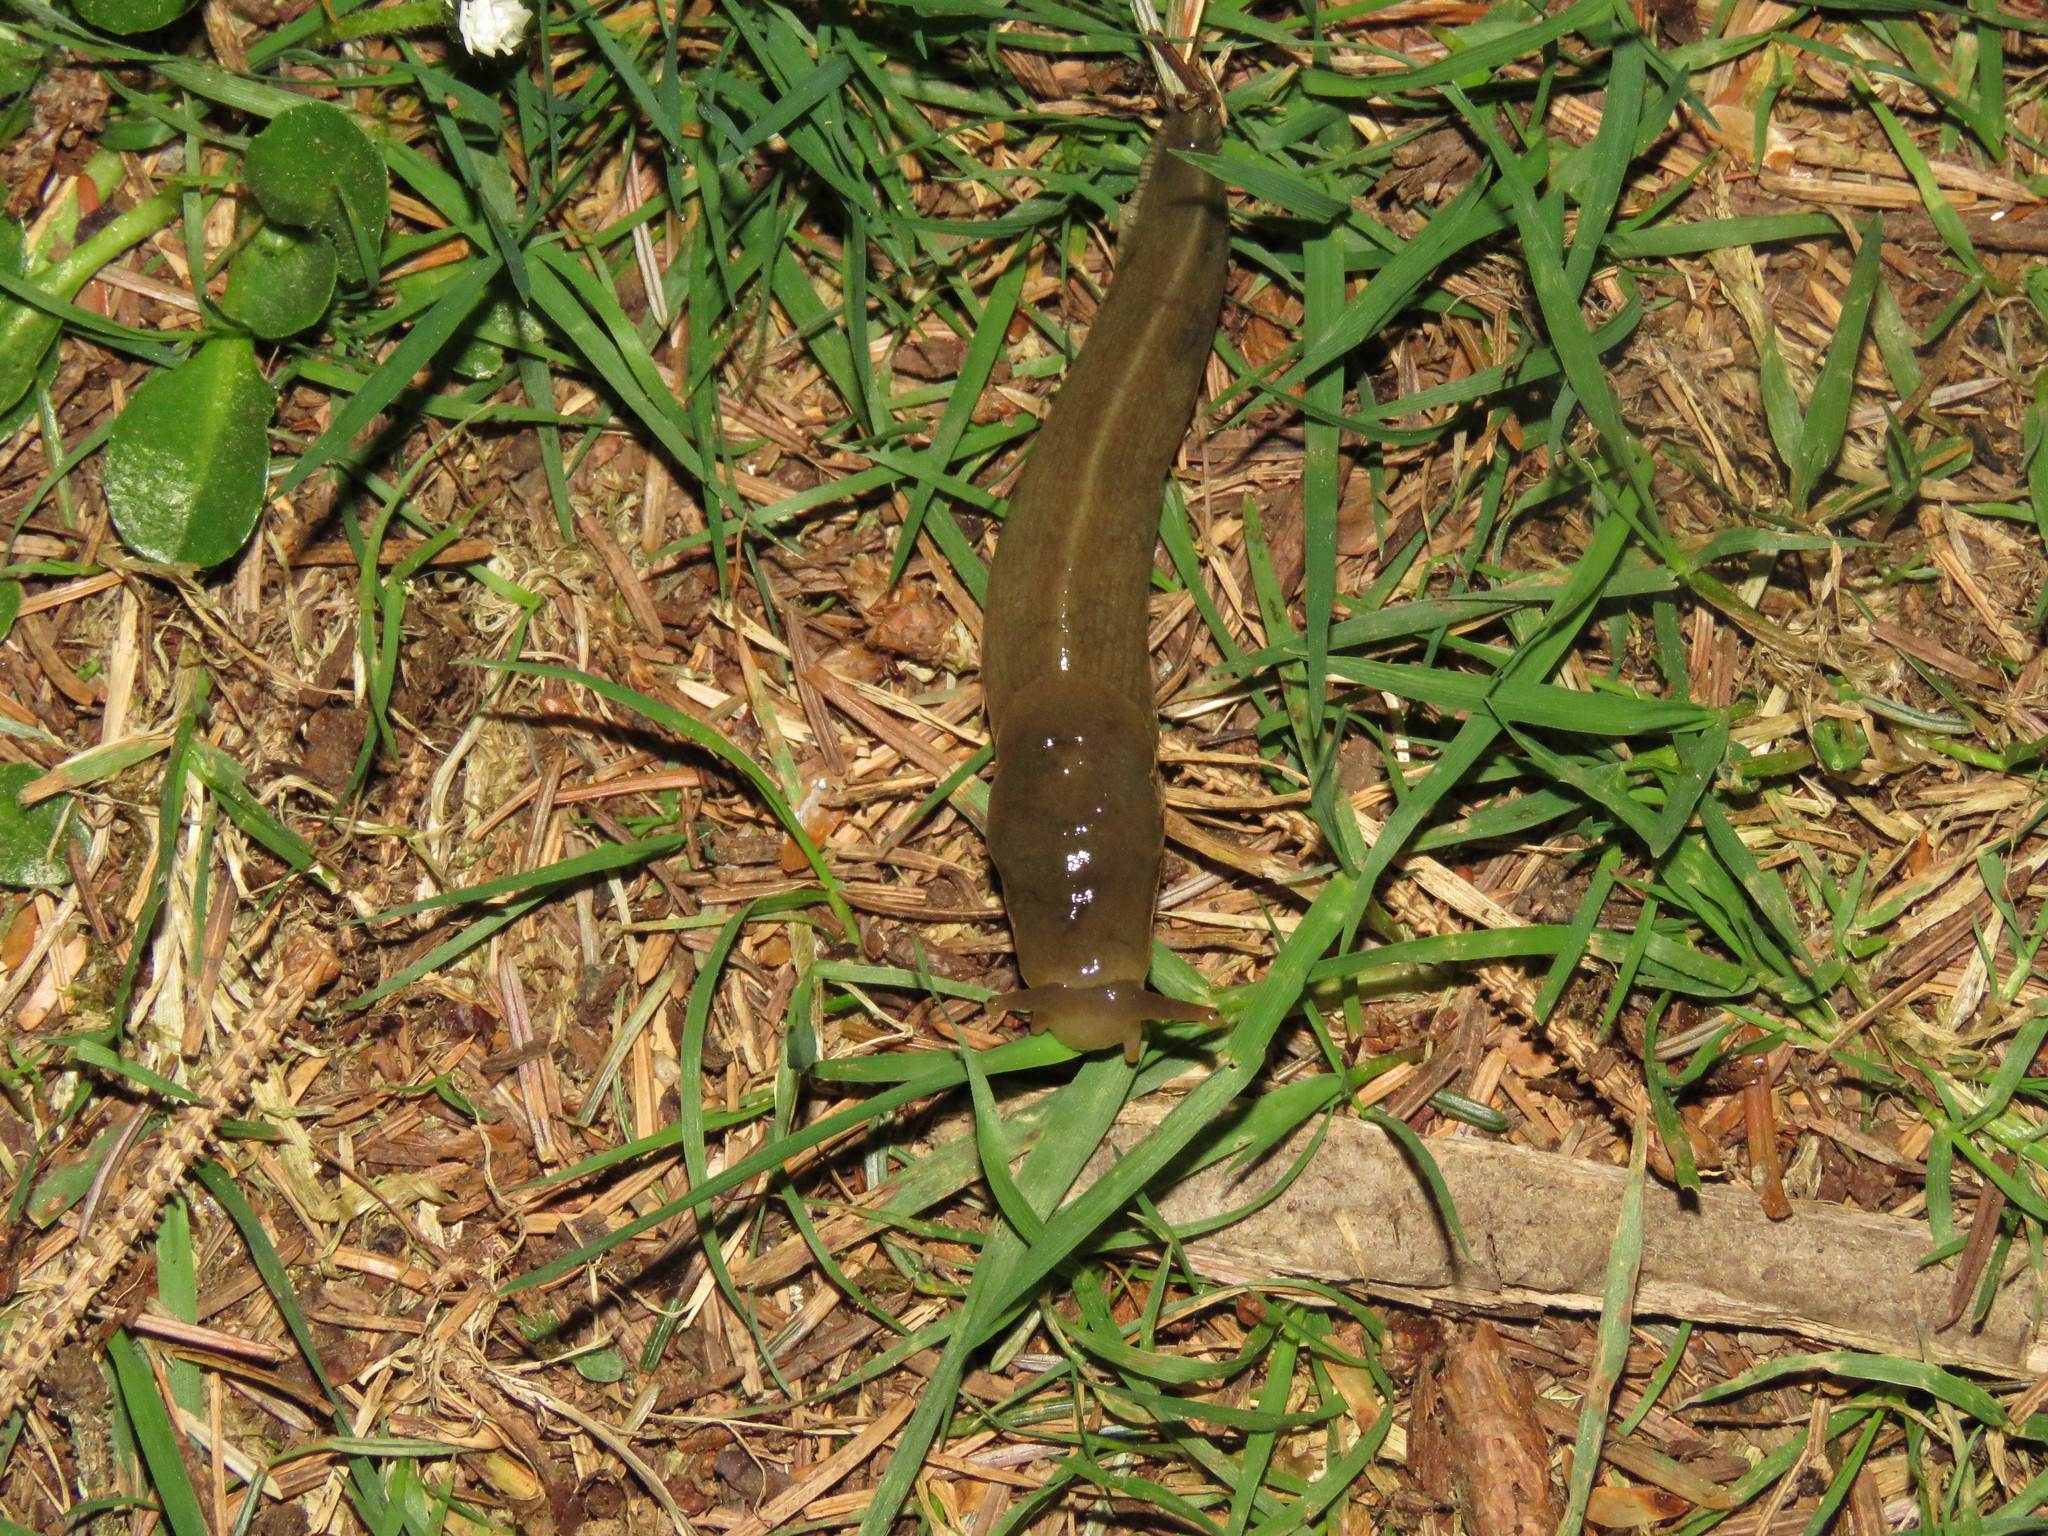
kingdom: Animalia
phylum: Mollusca
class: Gastropoda
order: Stylommatophora
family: Ariolimacidae
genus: Ariolimax
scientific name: Ariolimax columbianus
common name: Pacific banana slug
